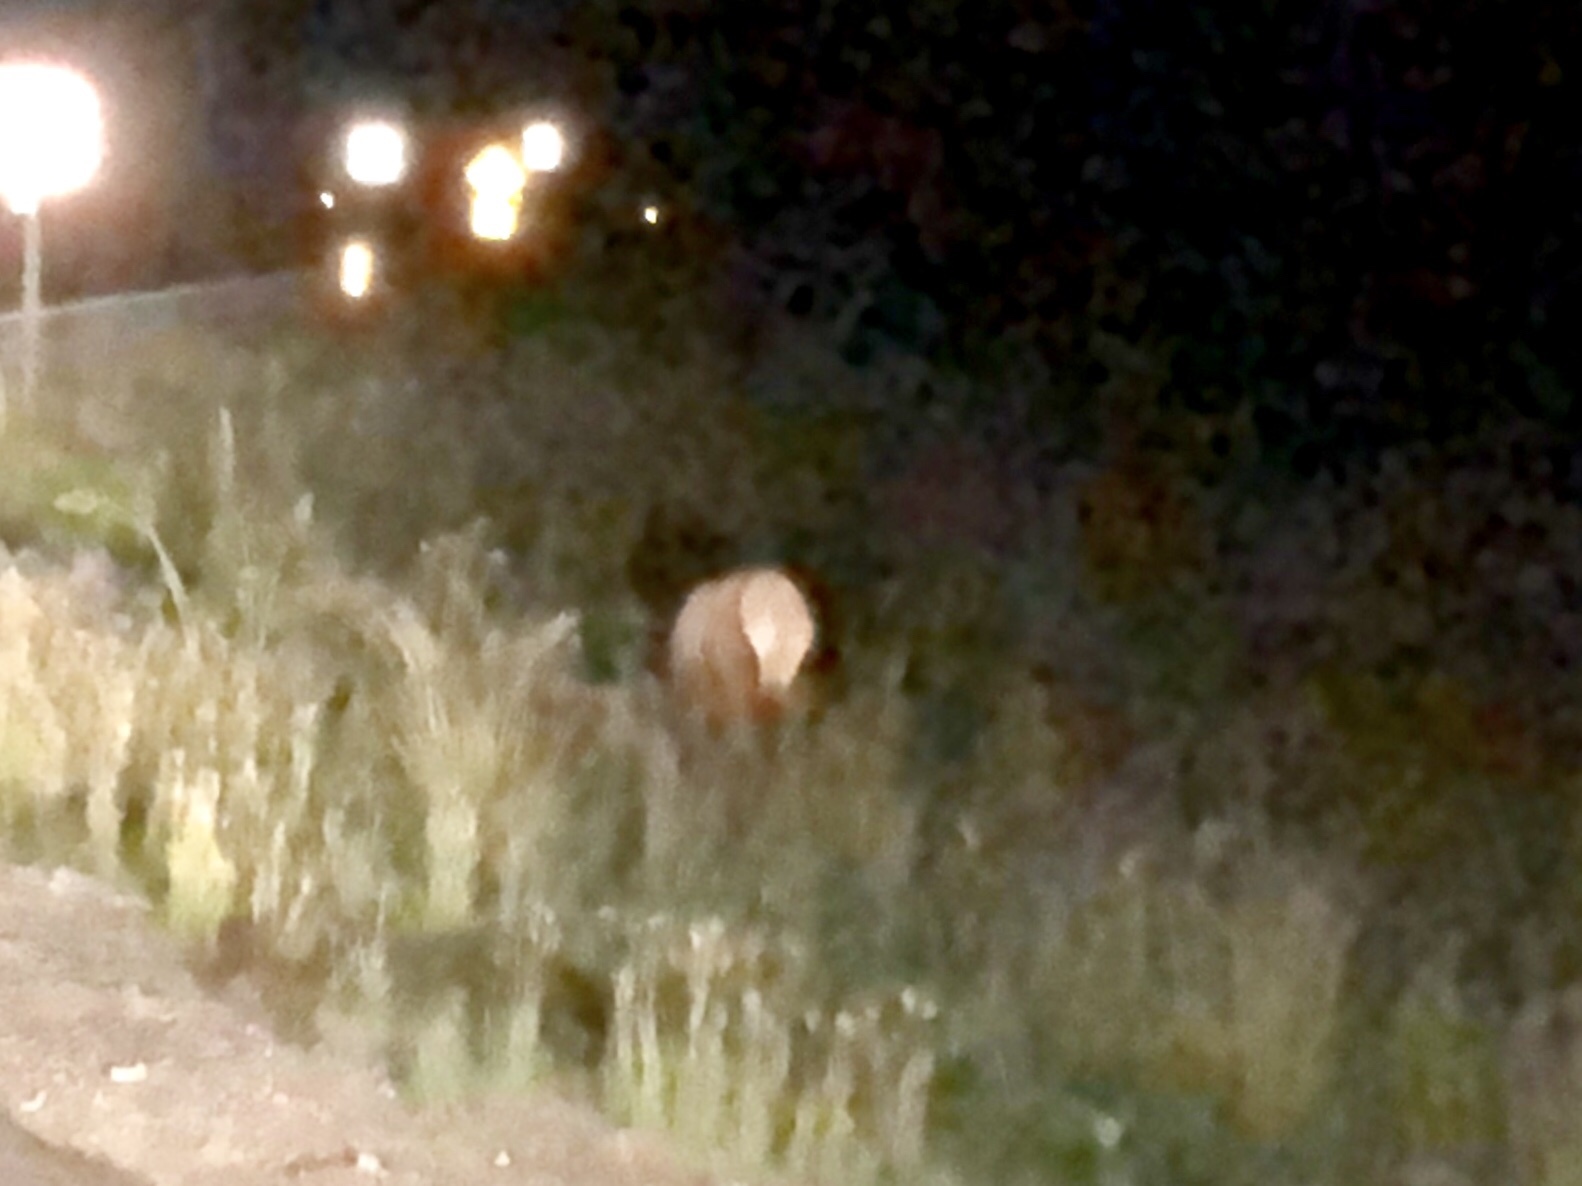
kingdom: Animalia
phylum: Chordata
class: Mammalia
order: Artiodactyla
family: Cervidae
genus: Cervus
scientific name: Cervus elaphus
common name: Red deer
